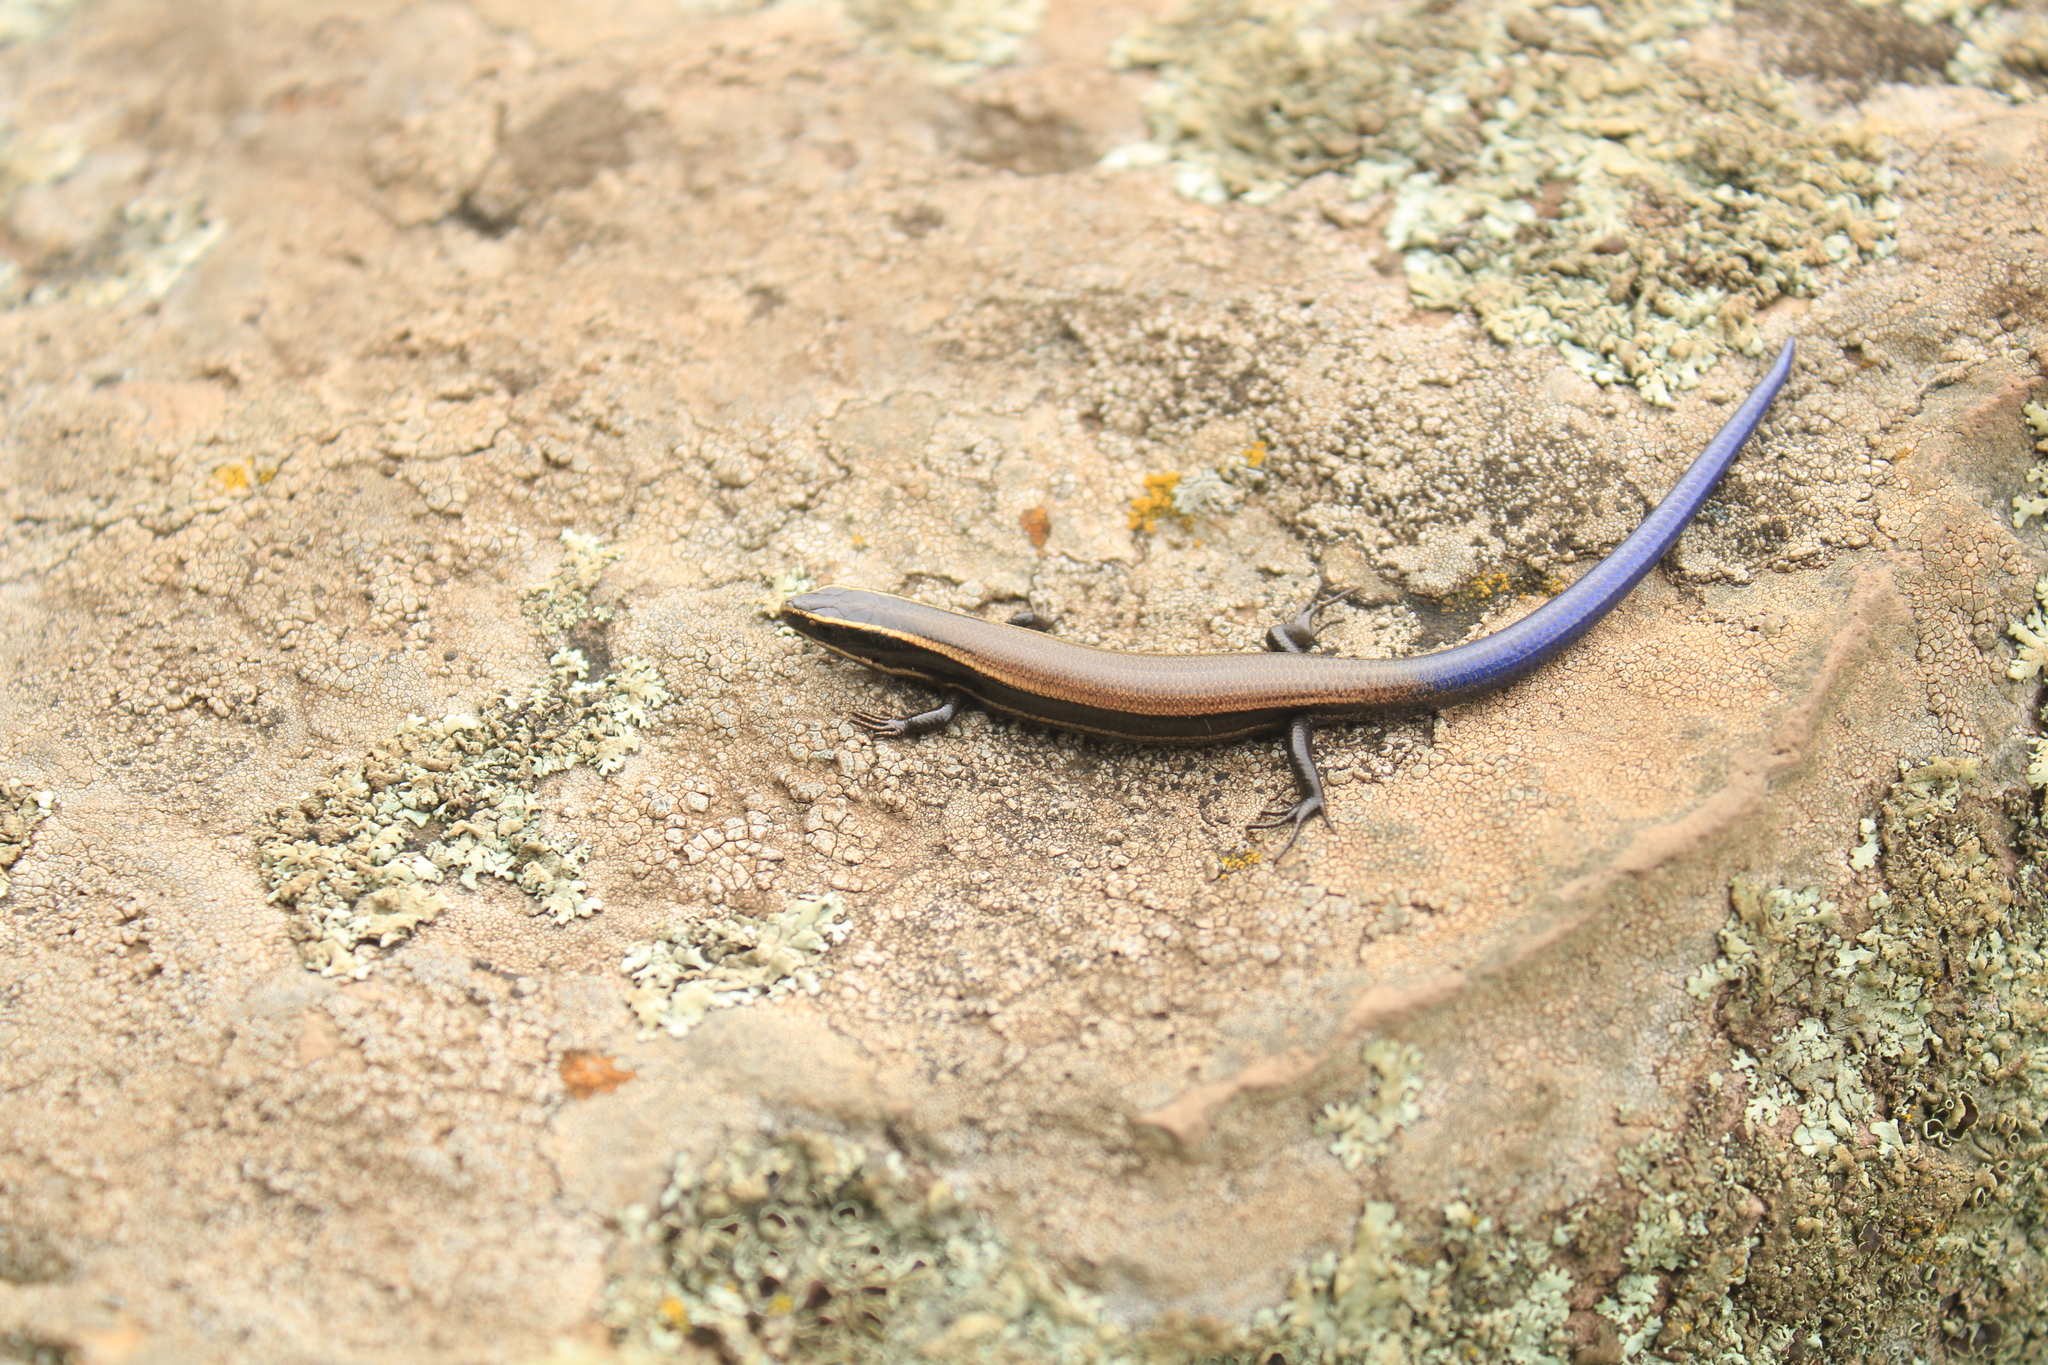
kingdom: Animalia
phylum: Chordata
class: Squamata
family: Scincidae
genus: Plestiodon
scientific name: Plestiodon dugesii
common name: Duges' skink
